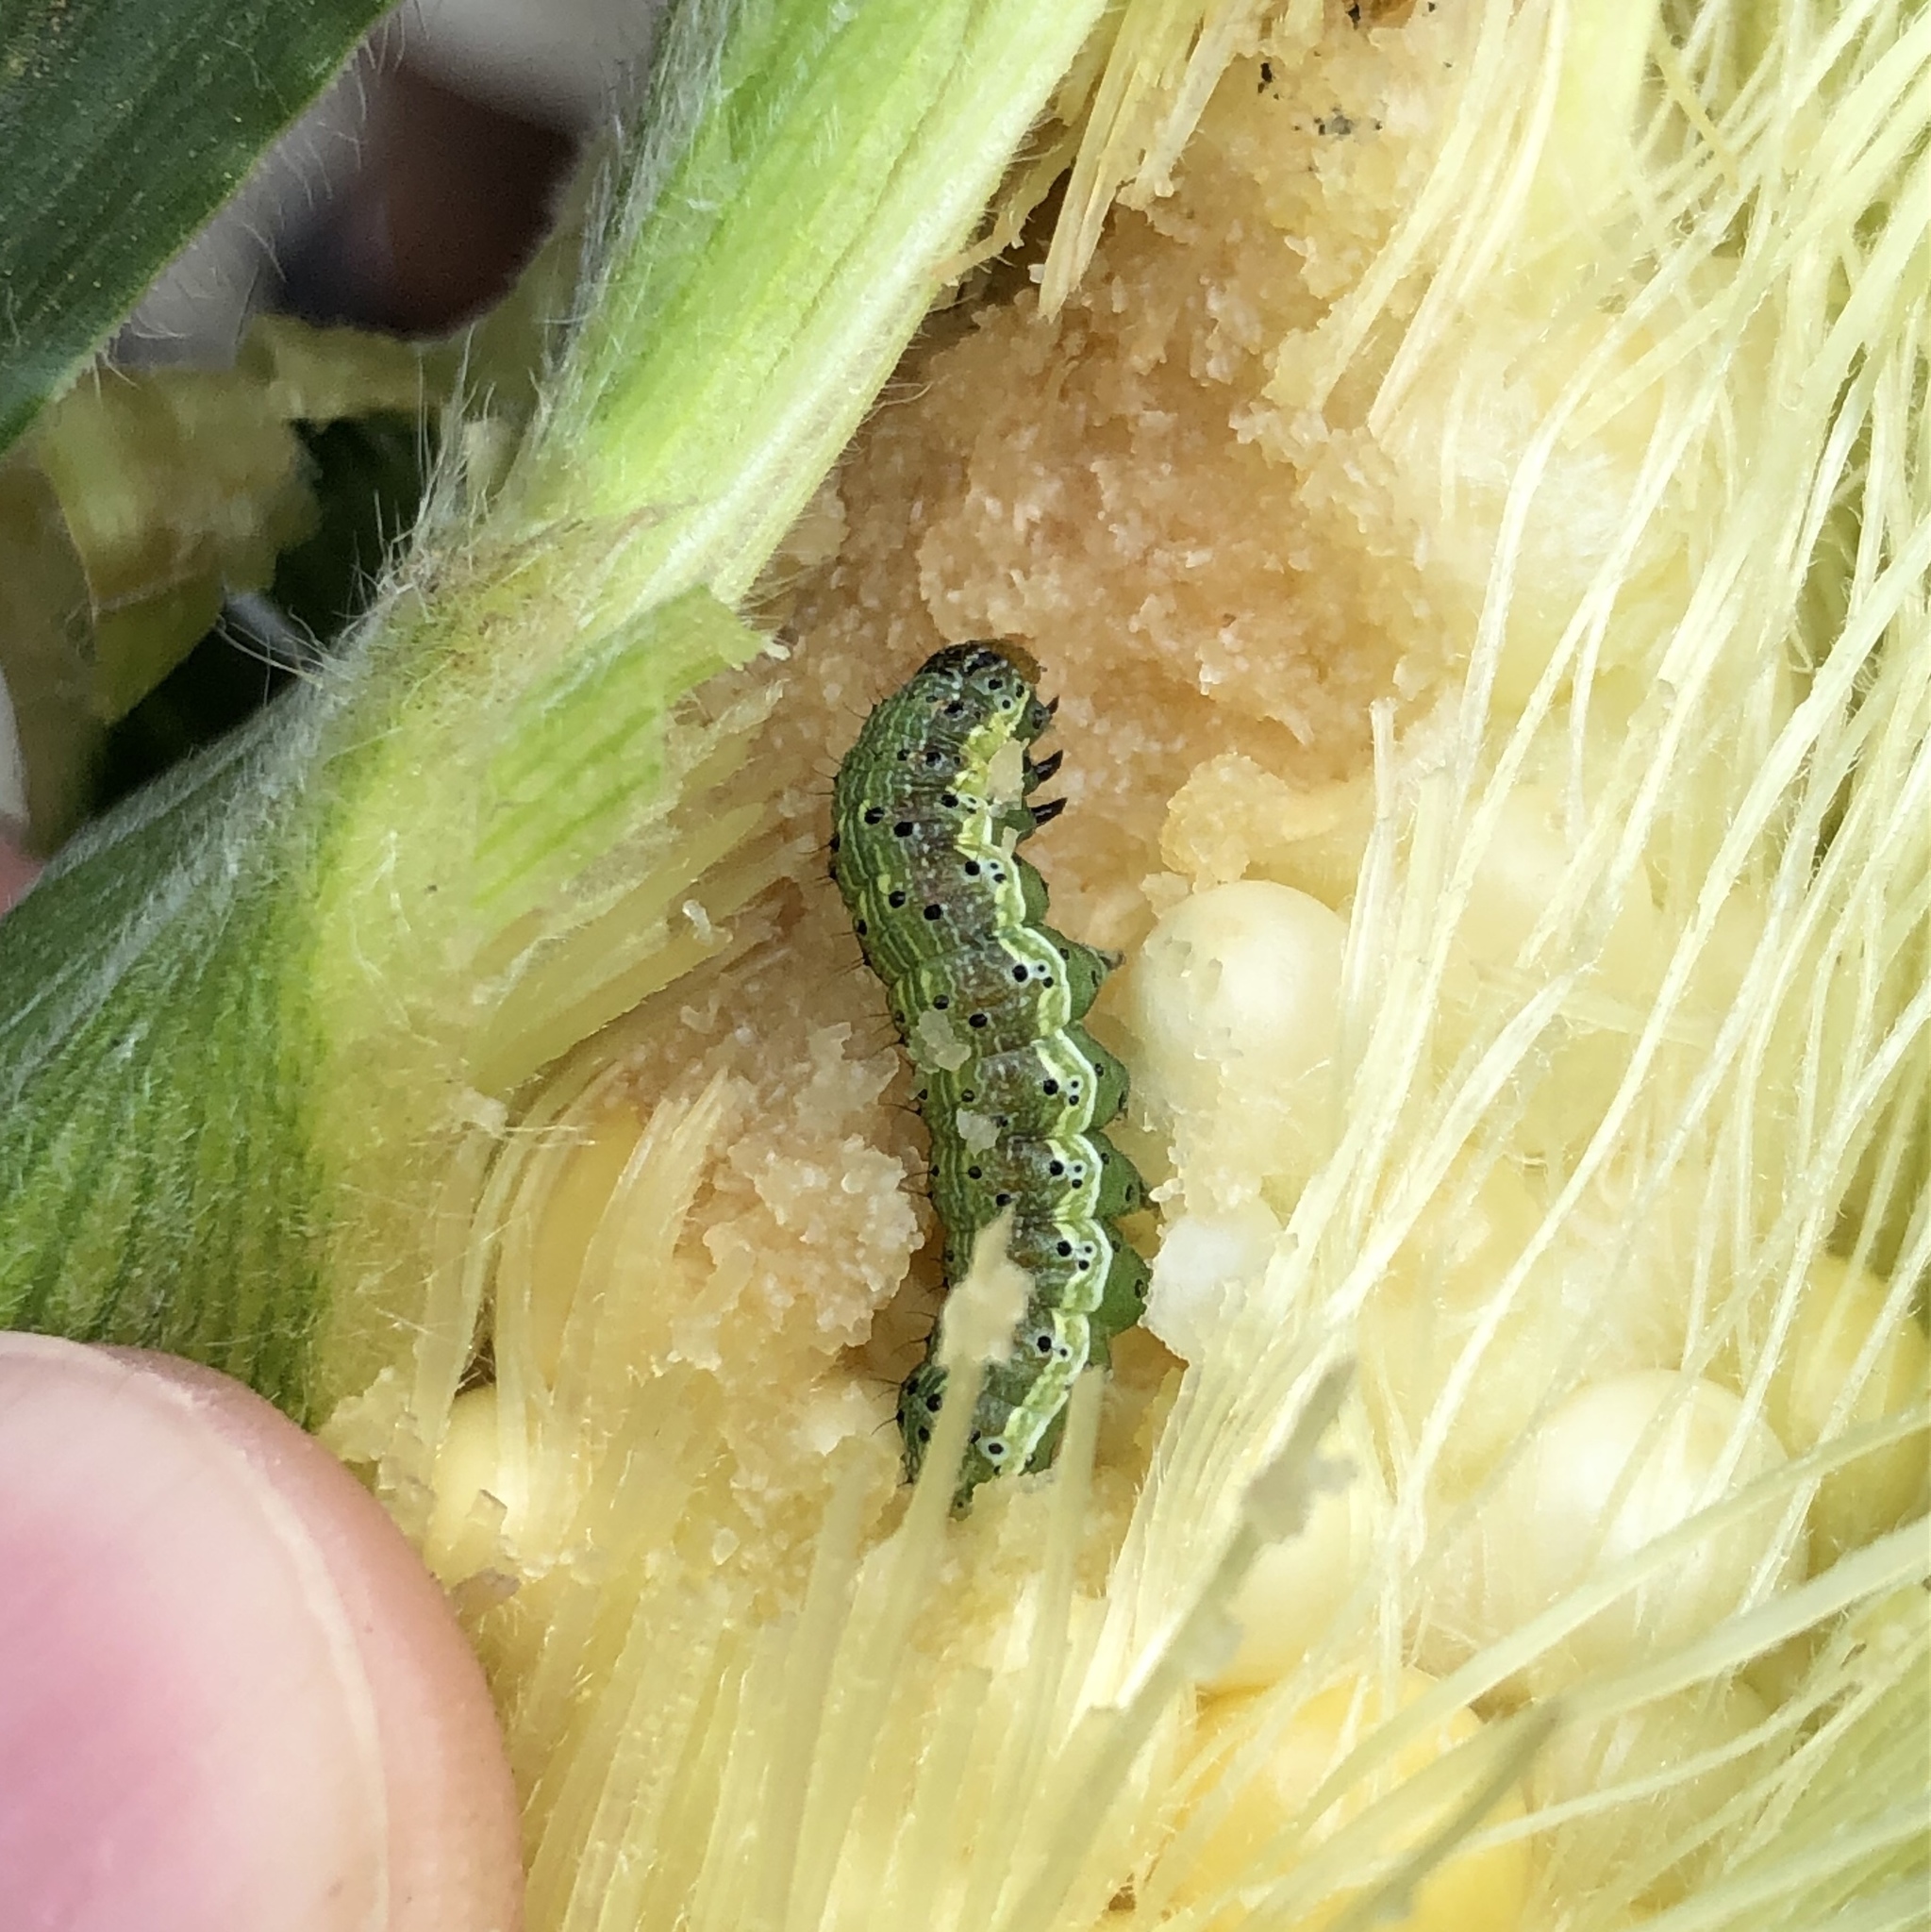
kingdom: Animalia
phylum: Arthropoda
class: Insecta
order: Lepidoptera
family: Noctuidae
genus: Helicoverpa
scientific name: Helicoverpa zea
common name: Bollworm
